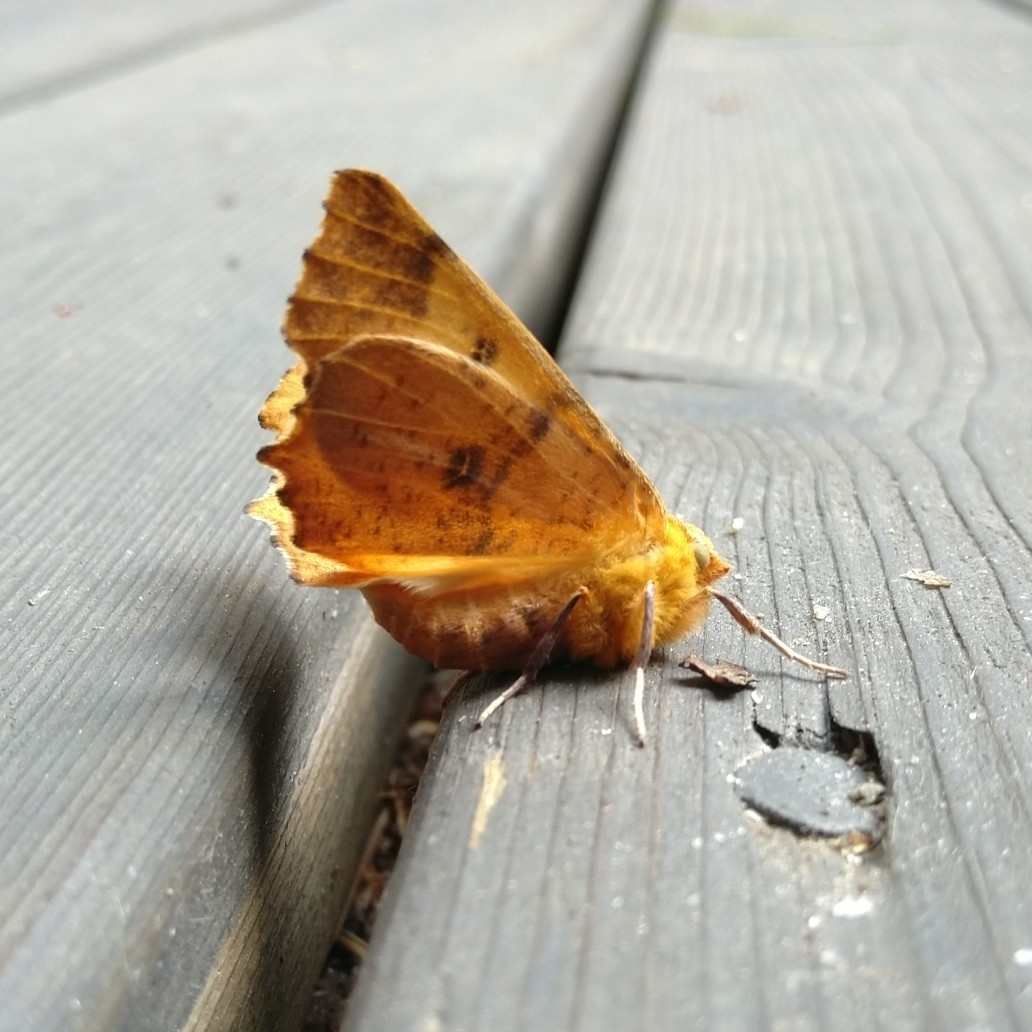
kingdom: Animalia
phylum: Arthropoda
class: Insecta
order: Lepidoptera
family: Geometridae
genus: Ennomos
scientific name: Ennomos autumnaria
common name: Large thorn
